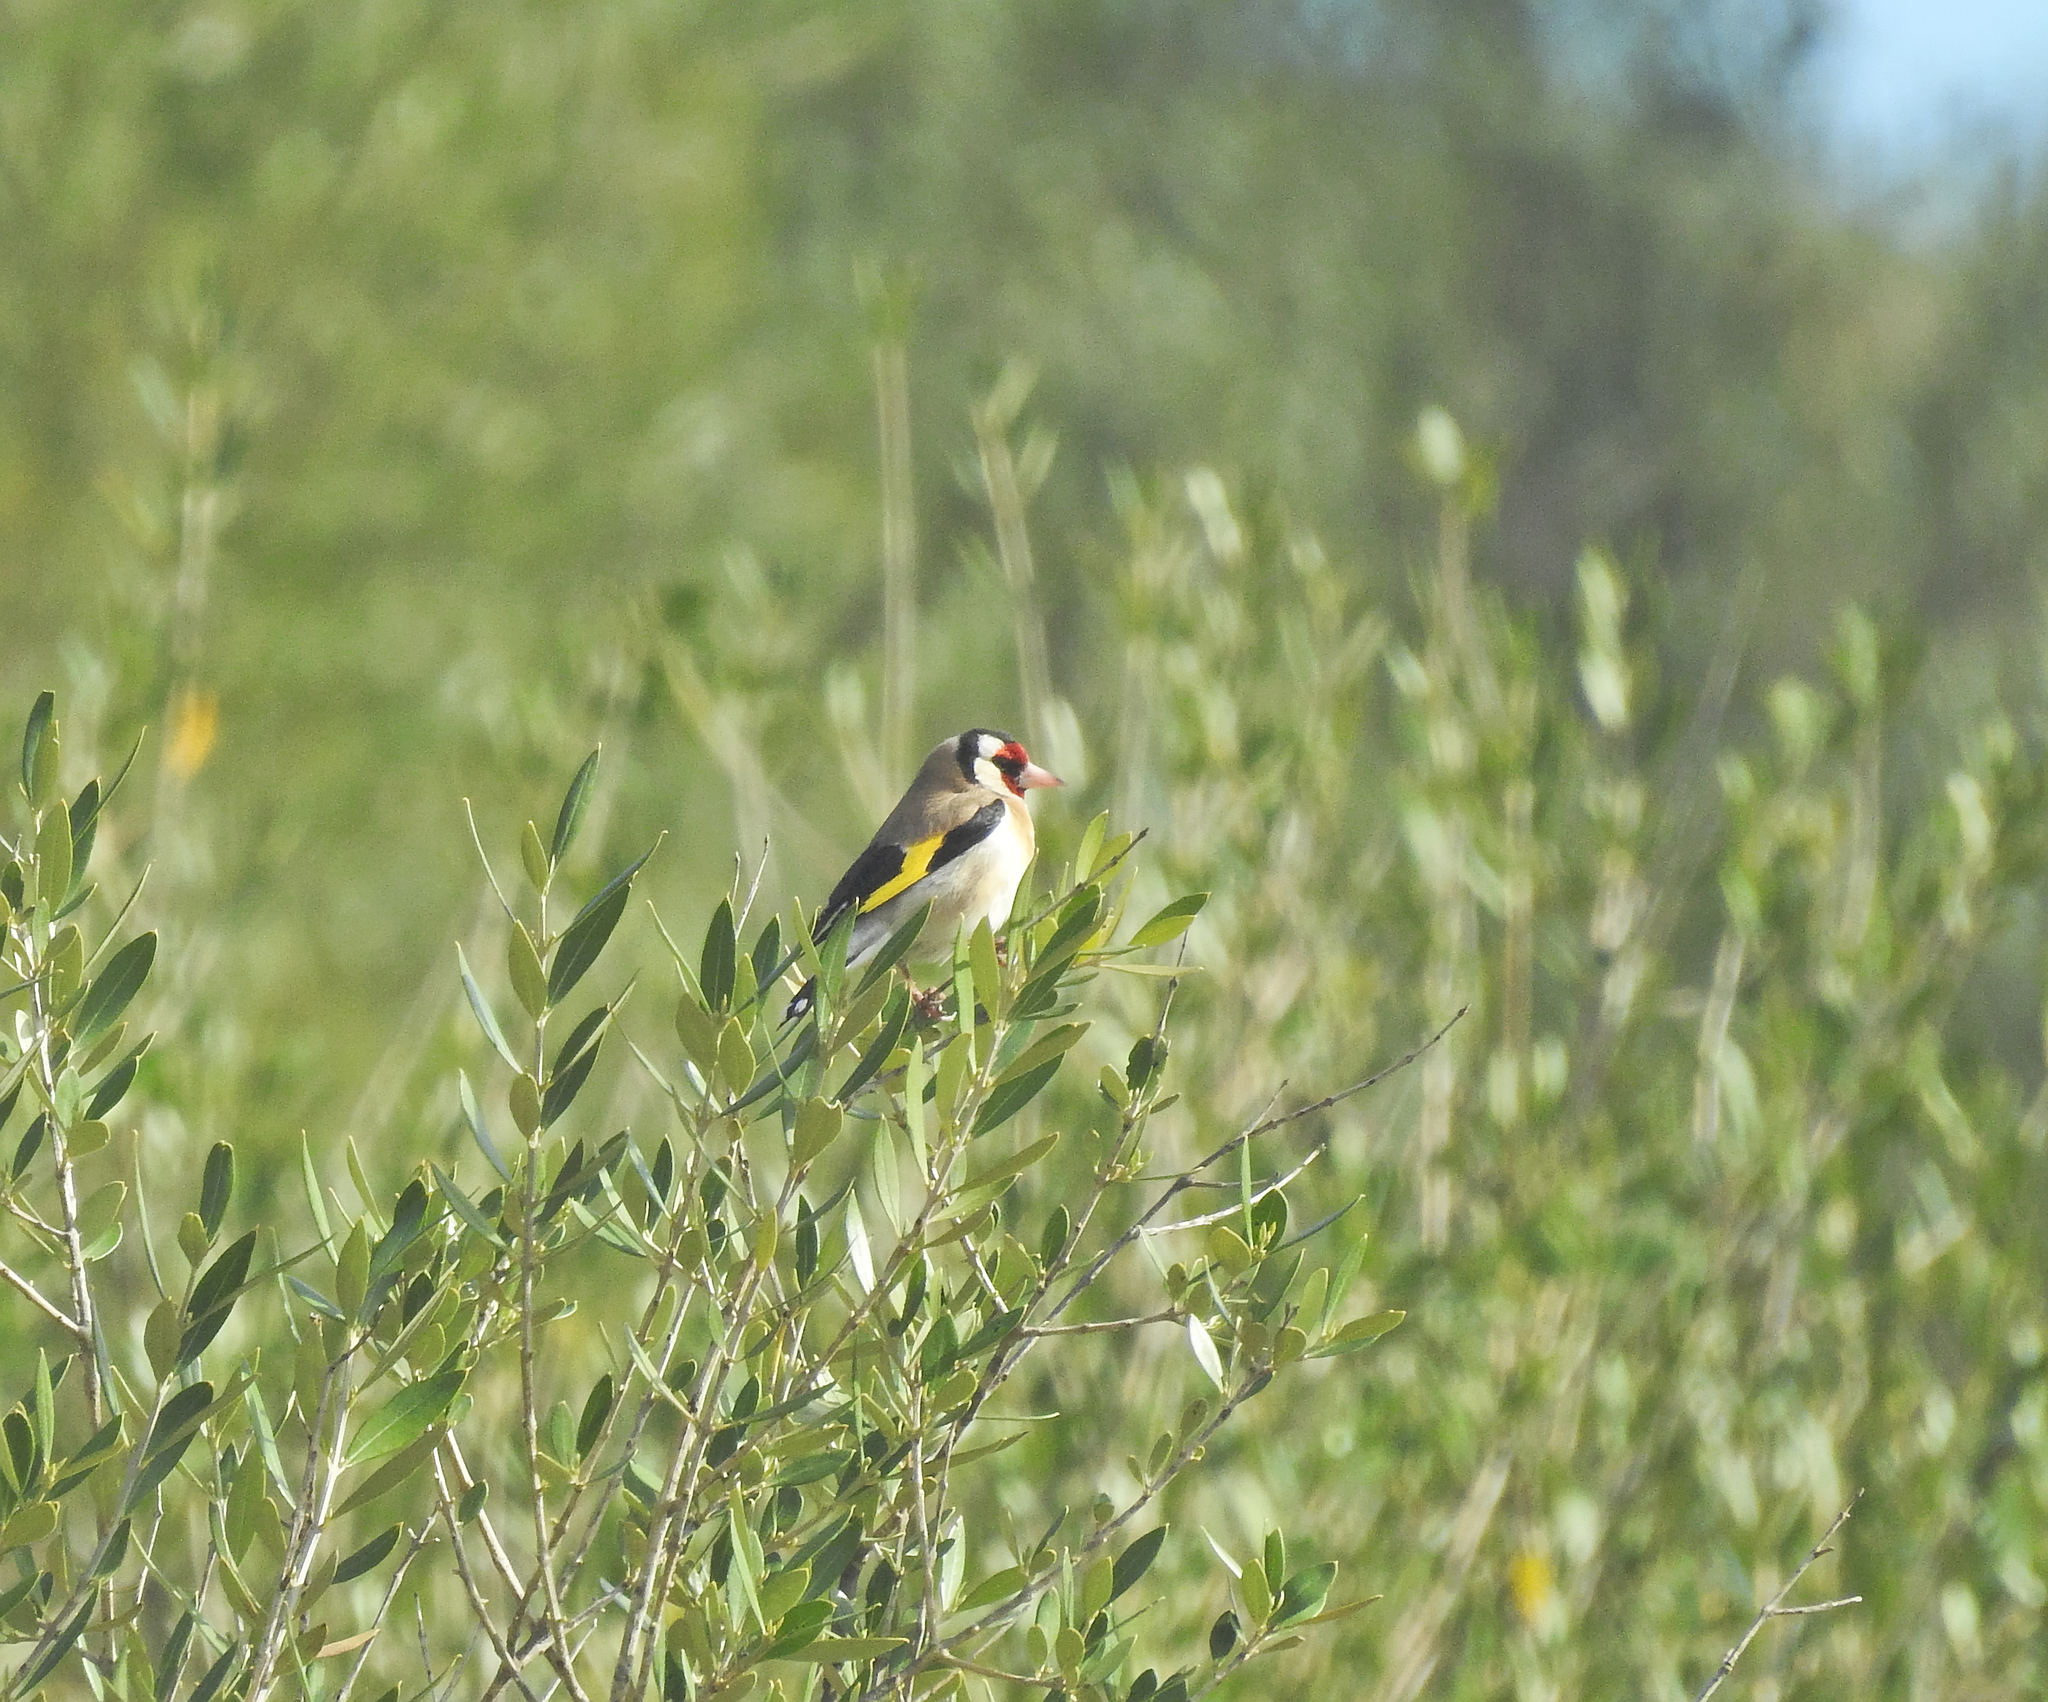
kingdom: Animalia
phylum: Chordata
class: Aves
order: Passeriformes
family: Fringillidae
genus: Carduelis
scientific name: Carduelis carduelis
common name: European goldfinch
